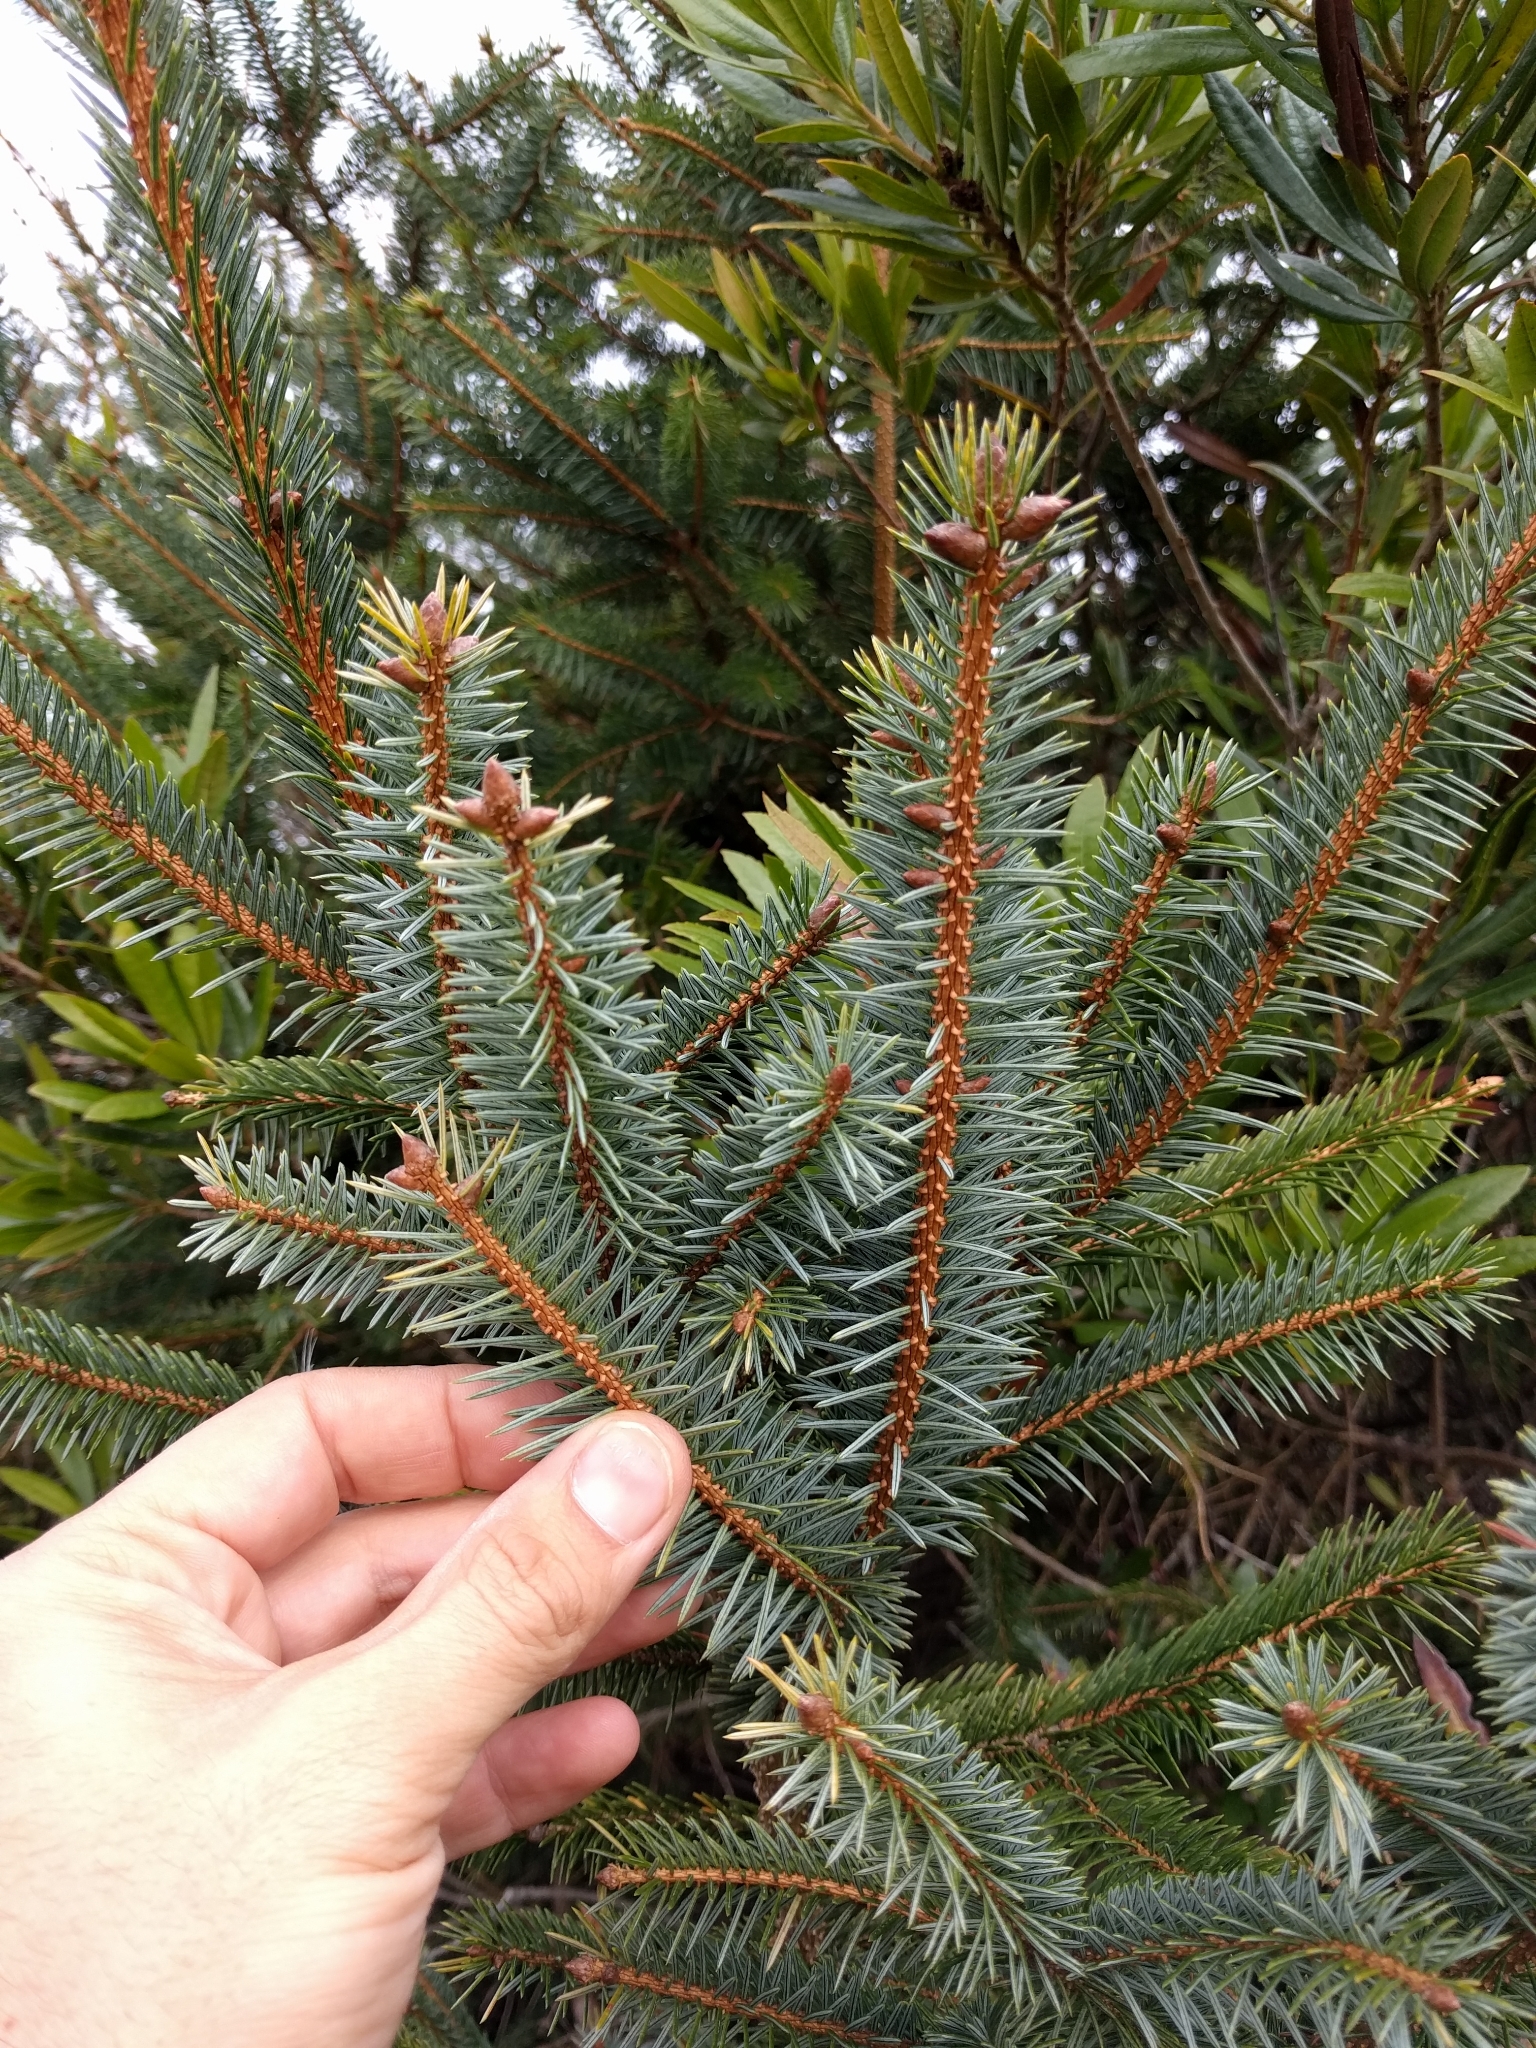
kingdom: Plantae
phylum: Tracheophyta
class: Pinopsida
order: Pinales
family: Pinaceae
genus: Picea
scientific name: Picea sitchensis
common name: Sitka spruce
